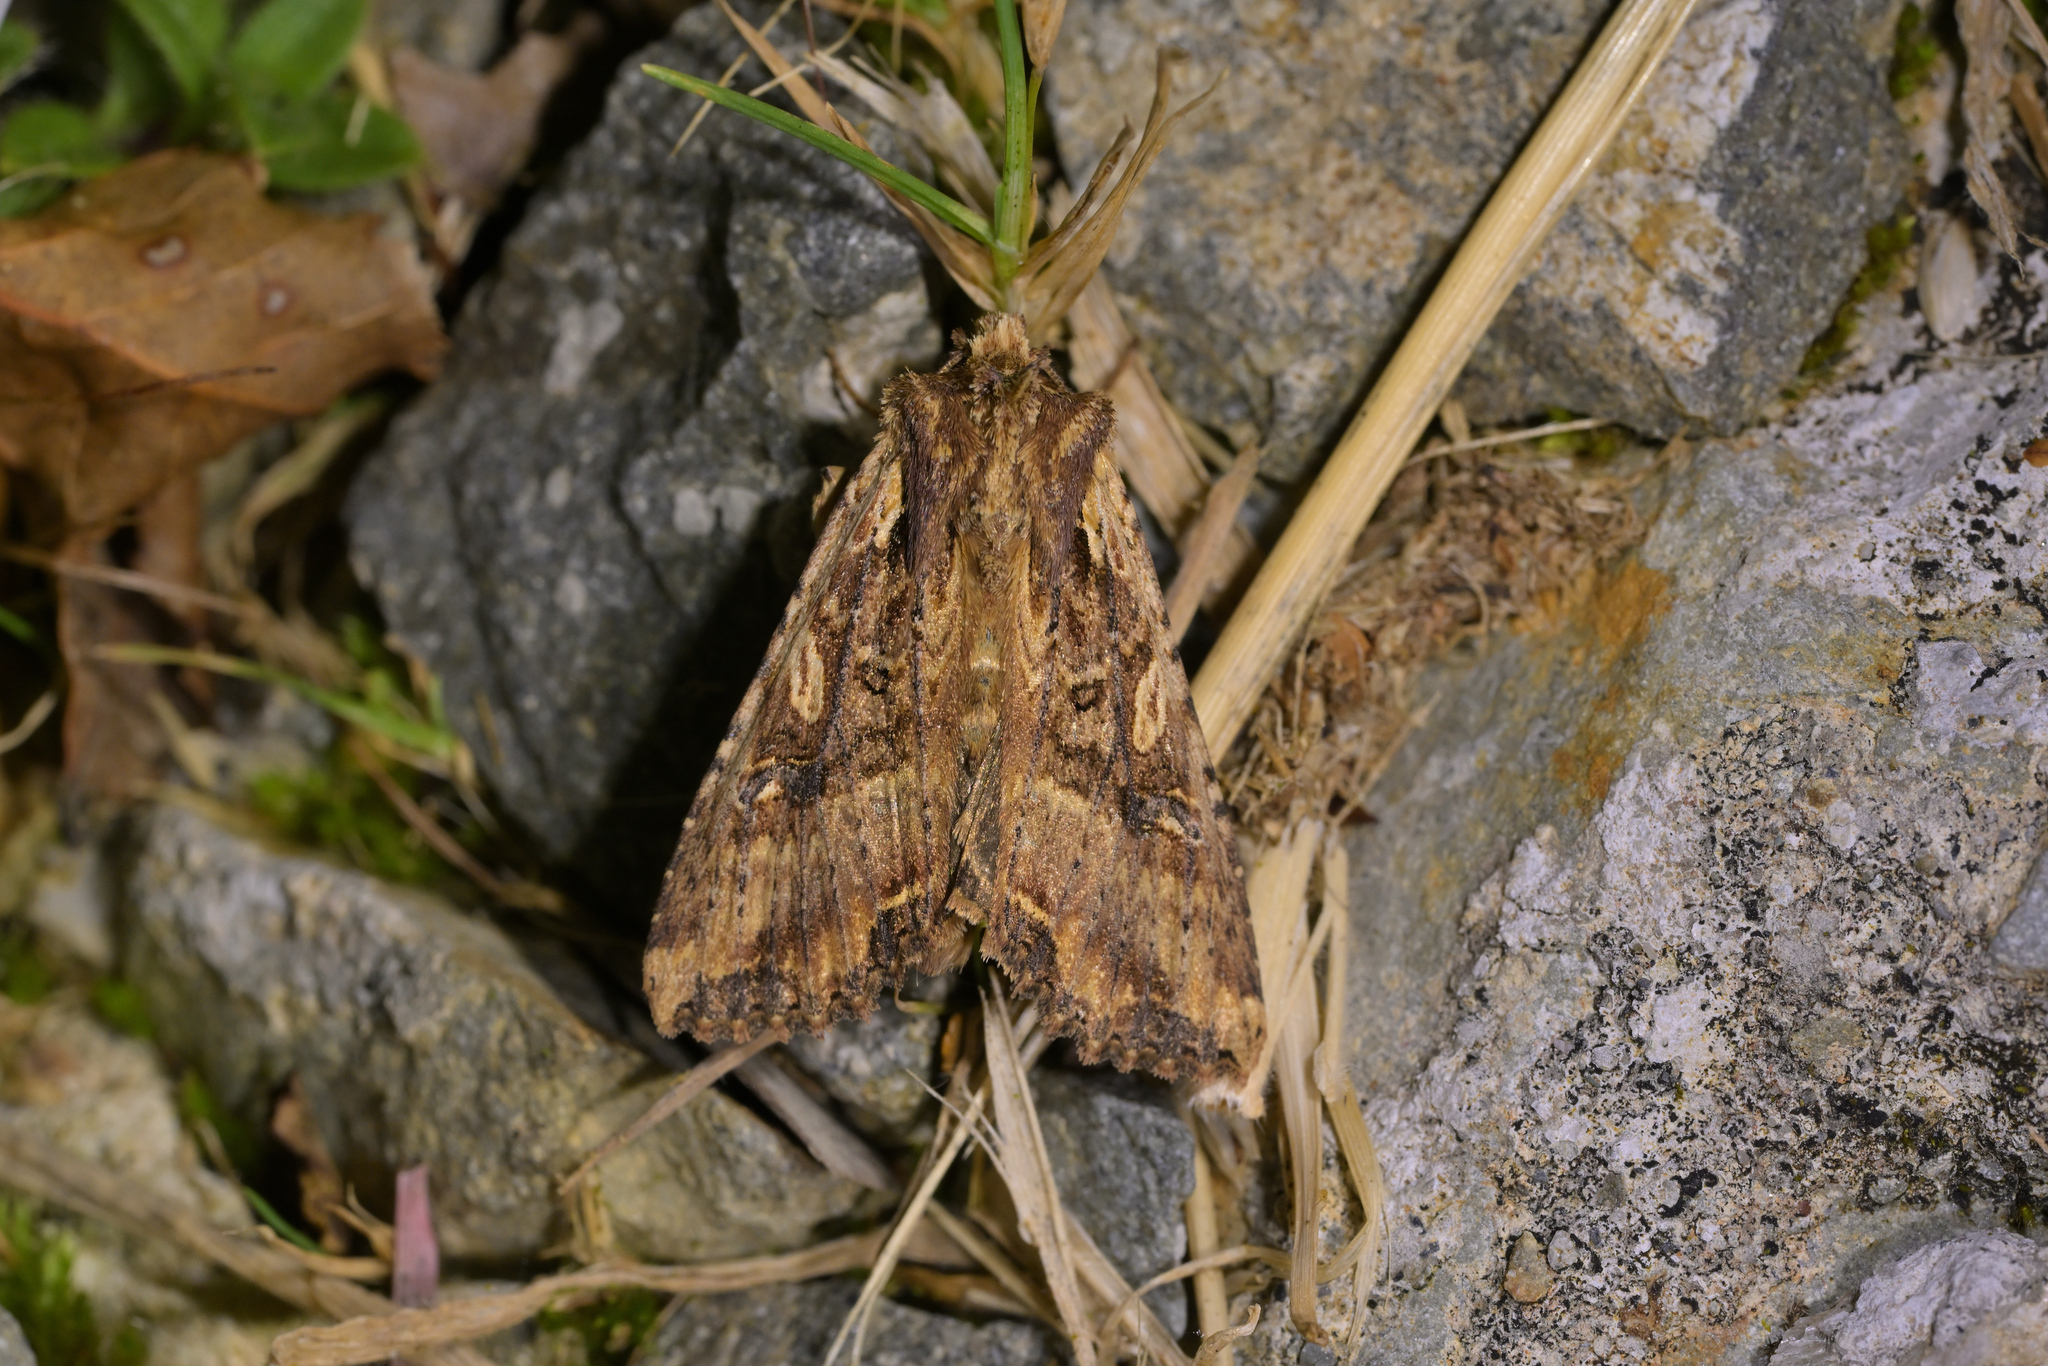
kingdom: Animalia
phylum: Arthropoda
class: Insecta
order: Lepidoptera
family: Noctuidae
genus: Meterana
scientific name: Meterana stipata
